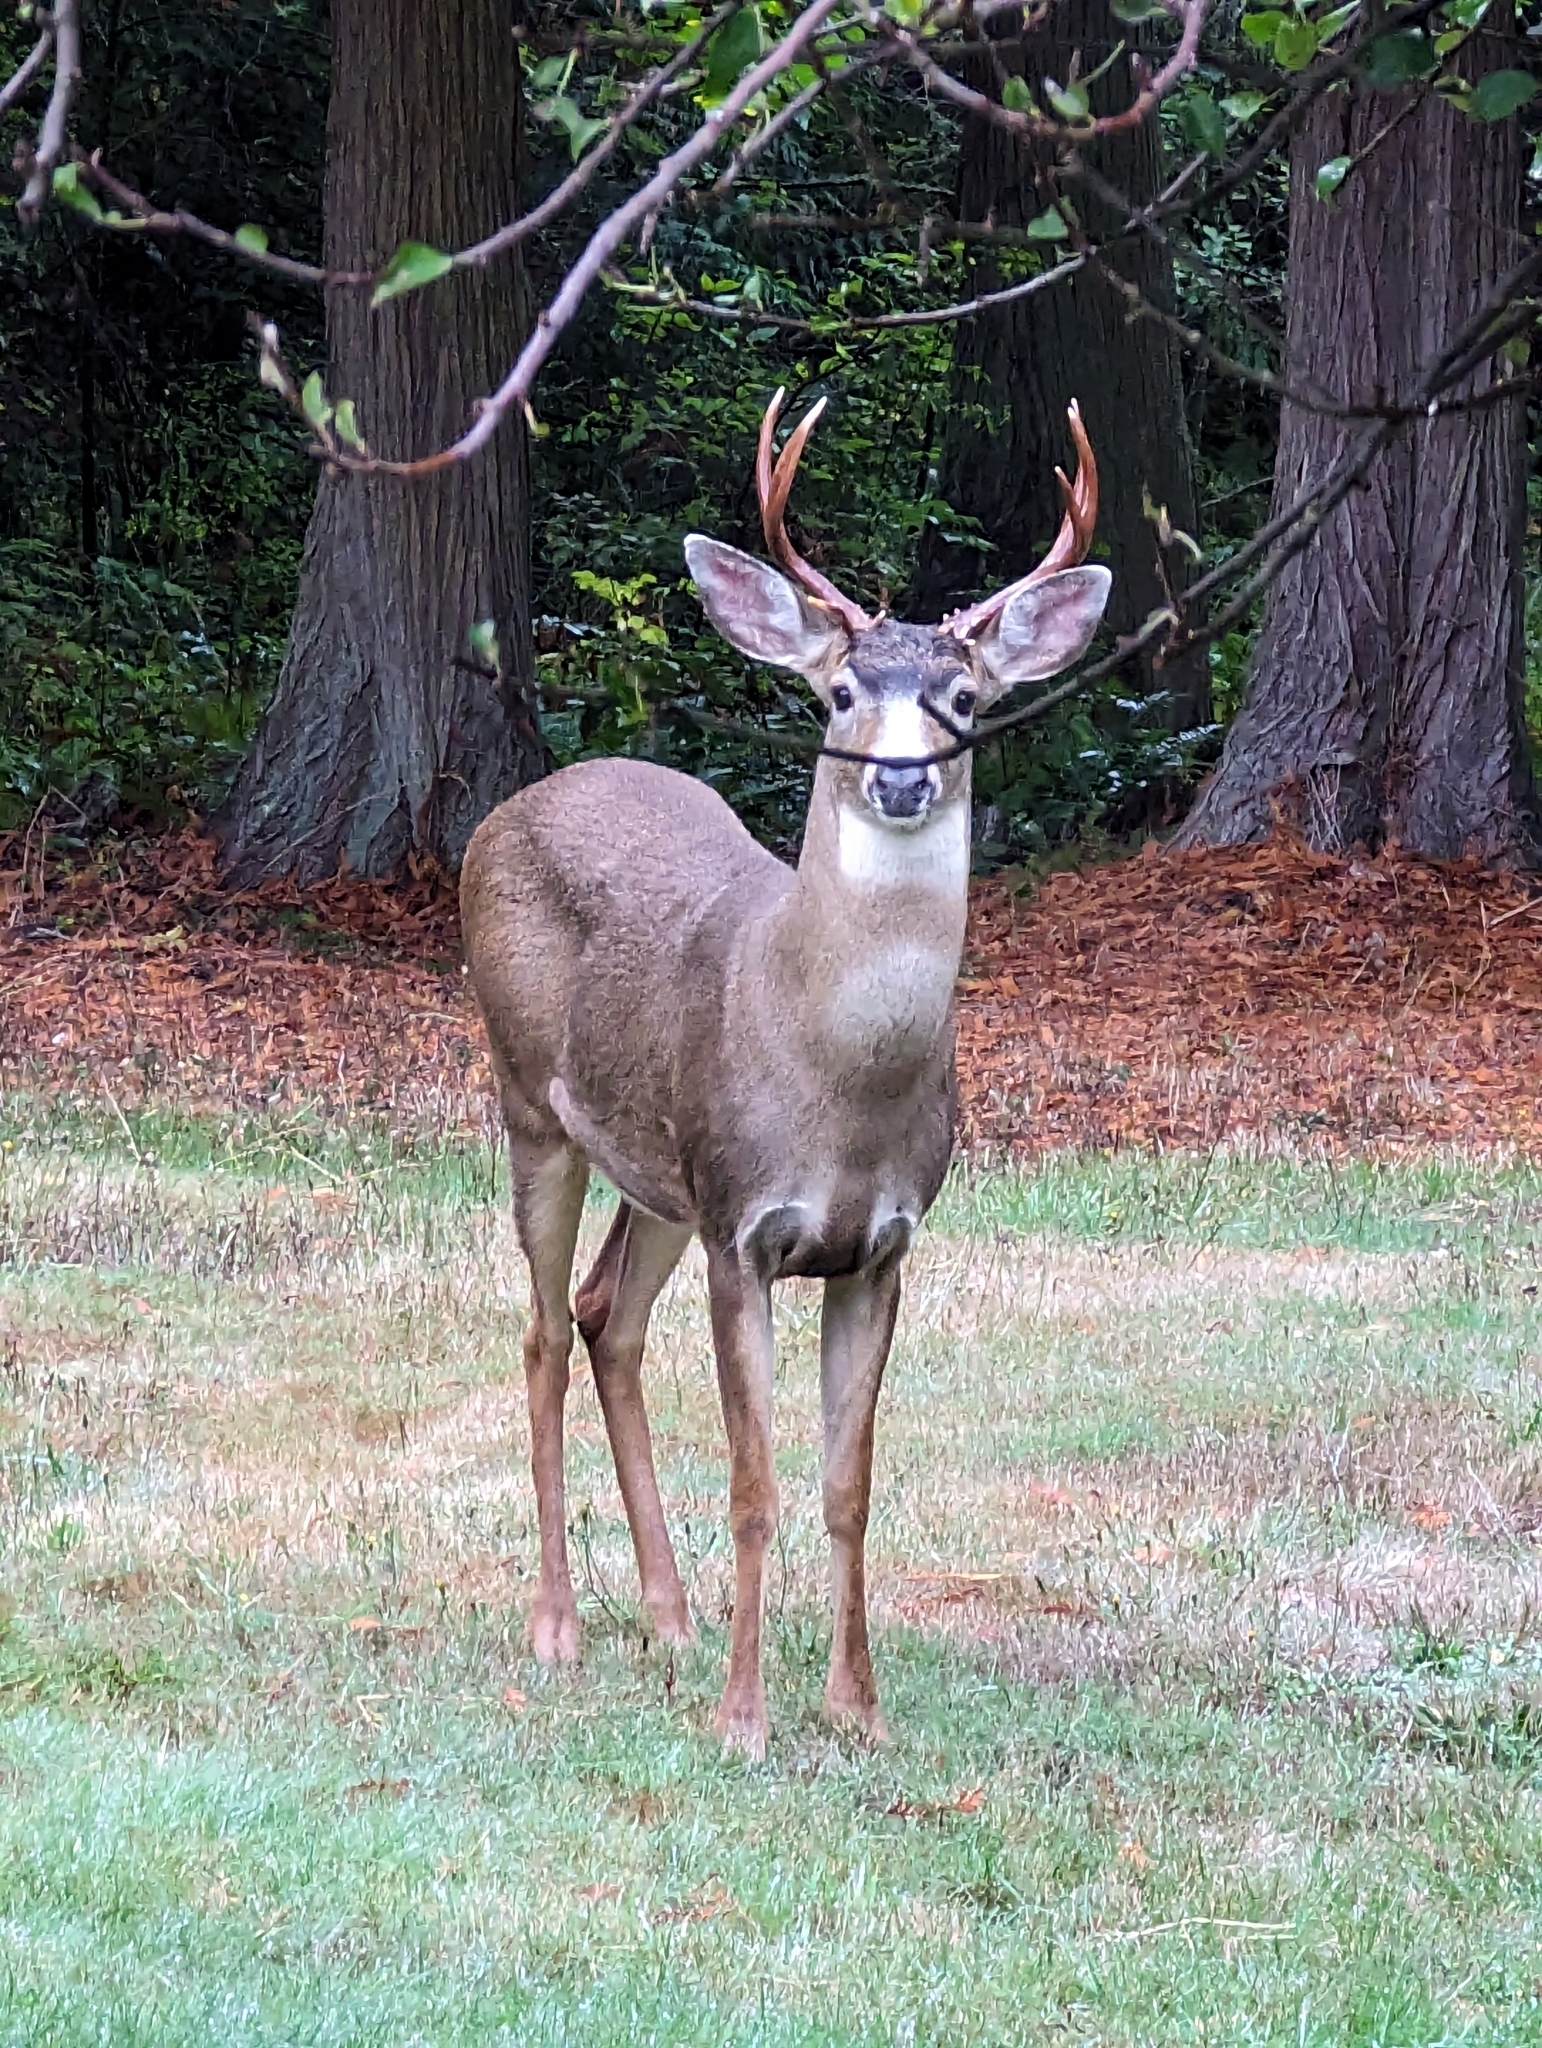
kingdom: Animalia
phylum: Chordata
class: Mammalia
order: Artiodactyla
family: Cervidae
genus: Odocoileus
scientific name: Odocoileus hemionus
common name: Mule deer
